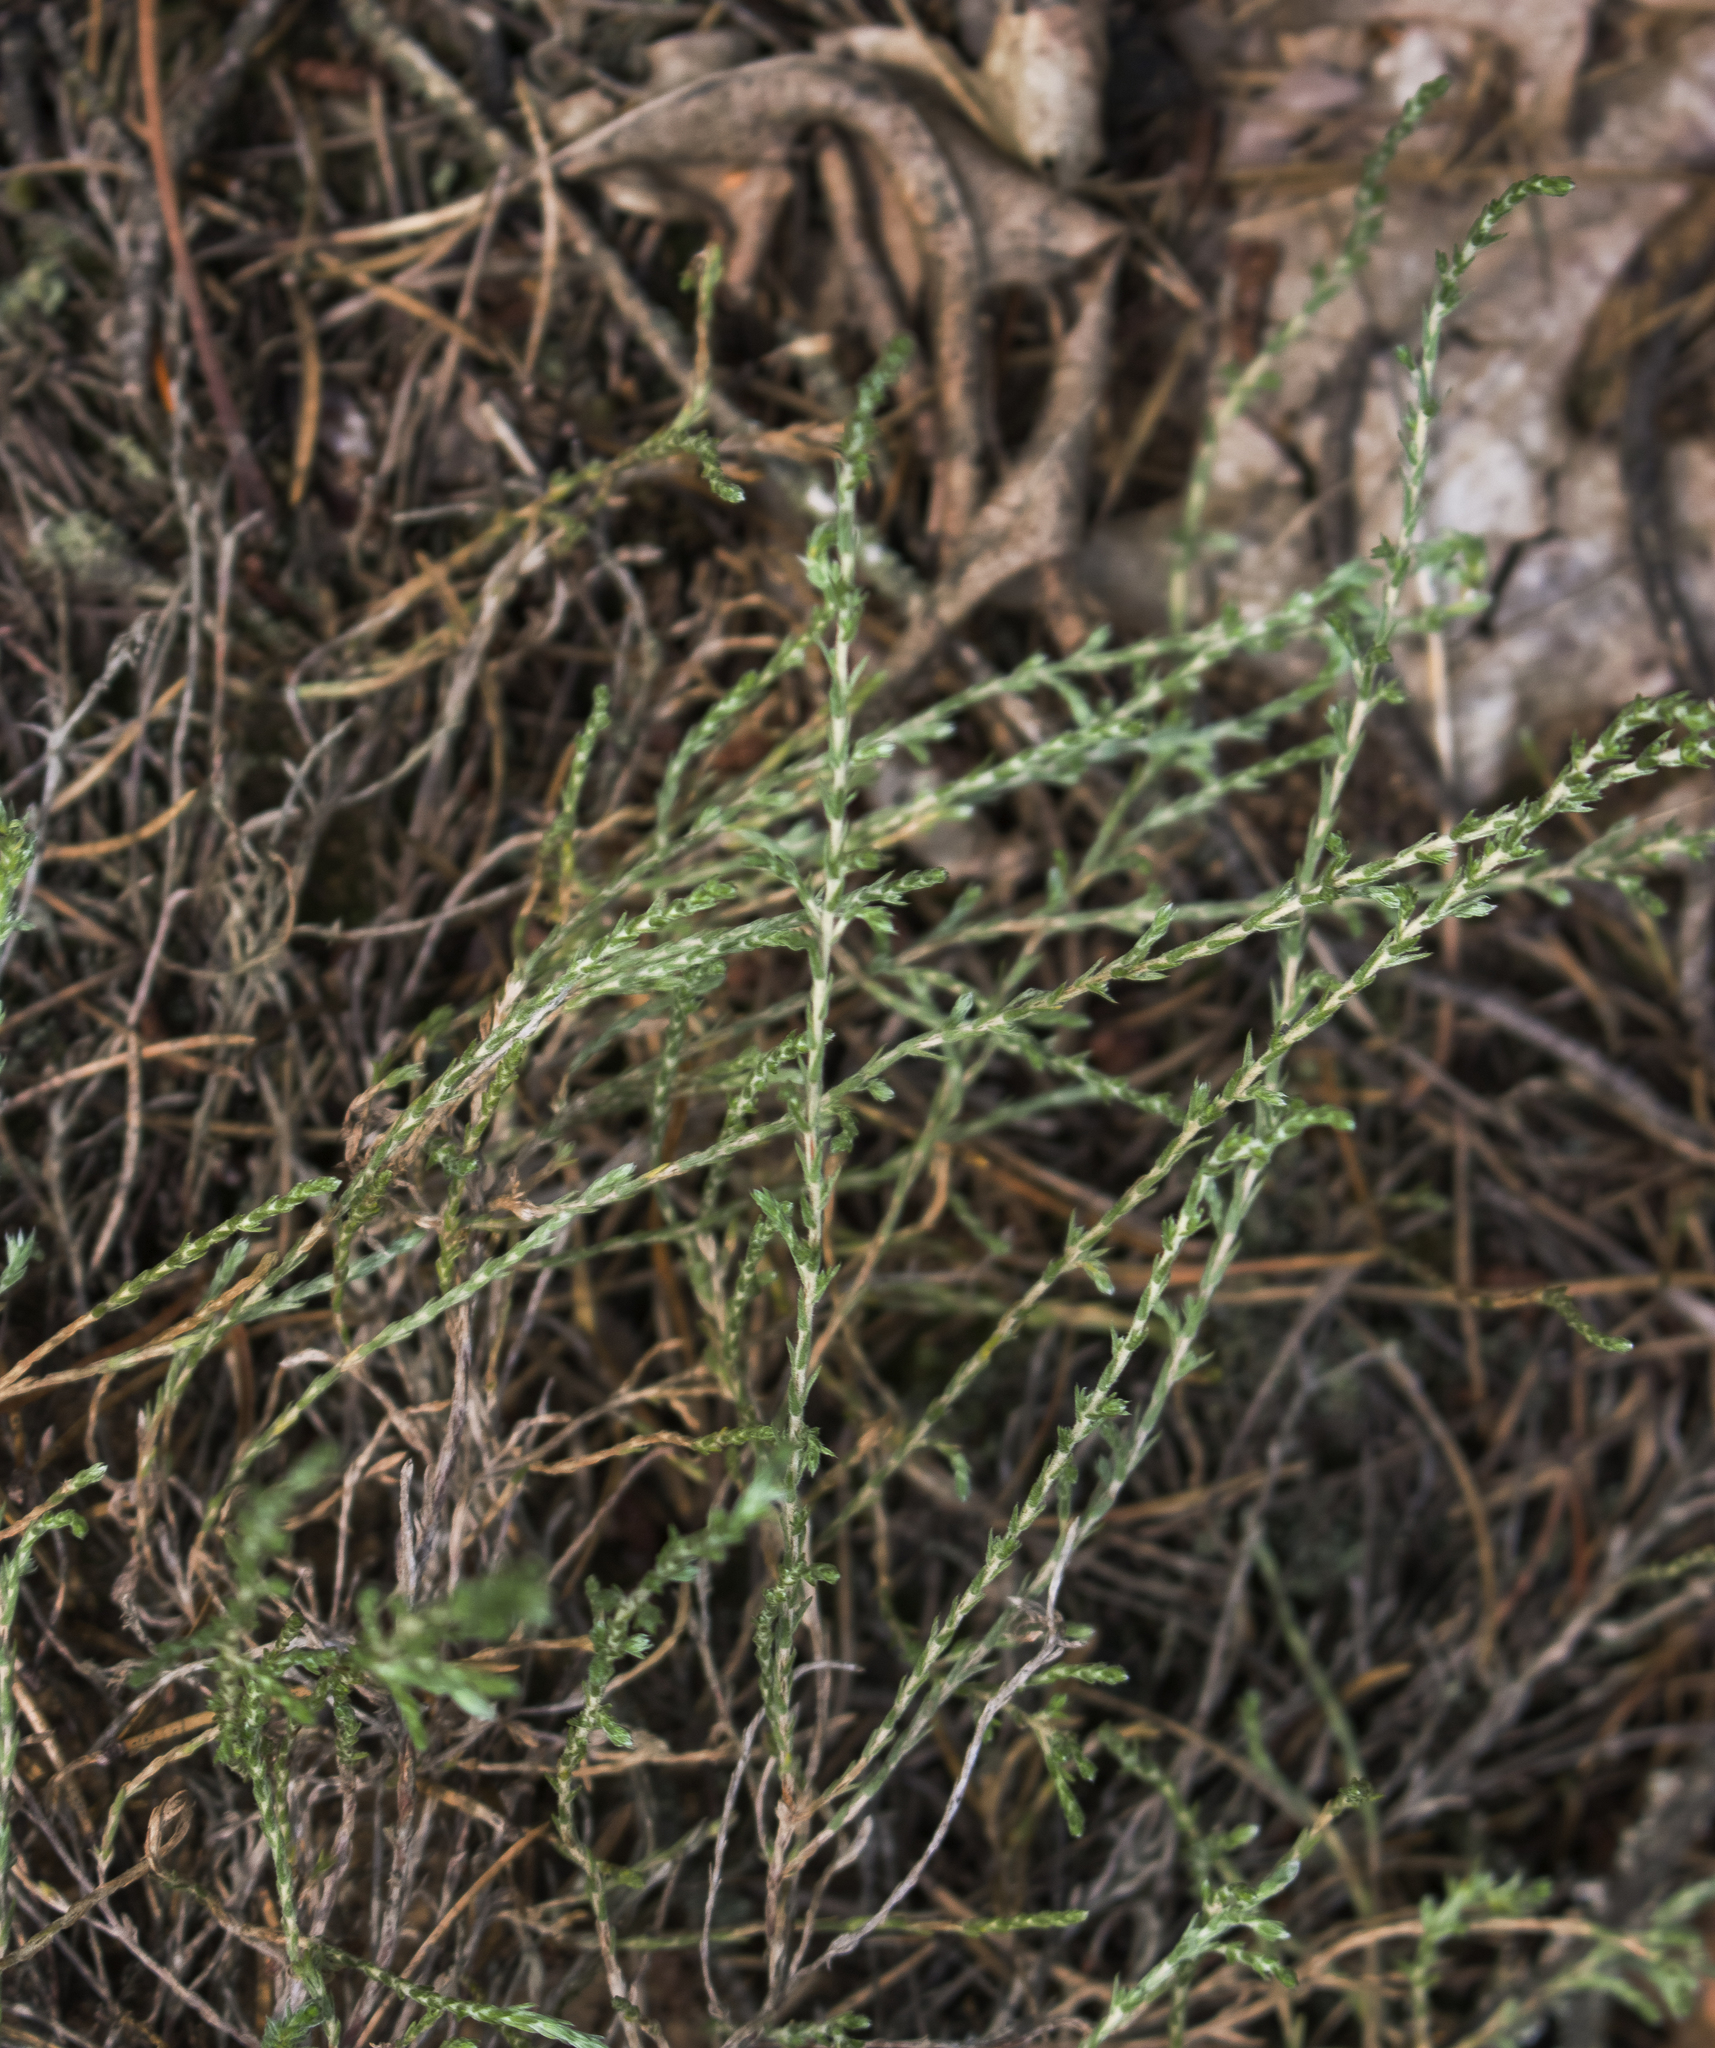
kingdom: Plantae
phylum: Tracheophyta
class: Magnoliopsida
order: Malvales
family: Cistaceae
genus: Hudsonia
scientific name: Hudsonia tomentosa
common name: Beach-heath
